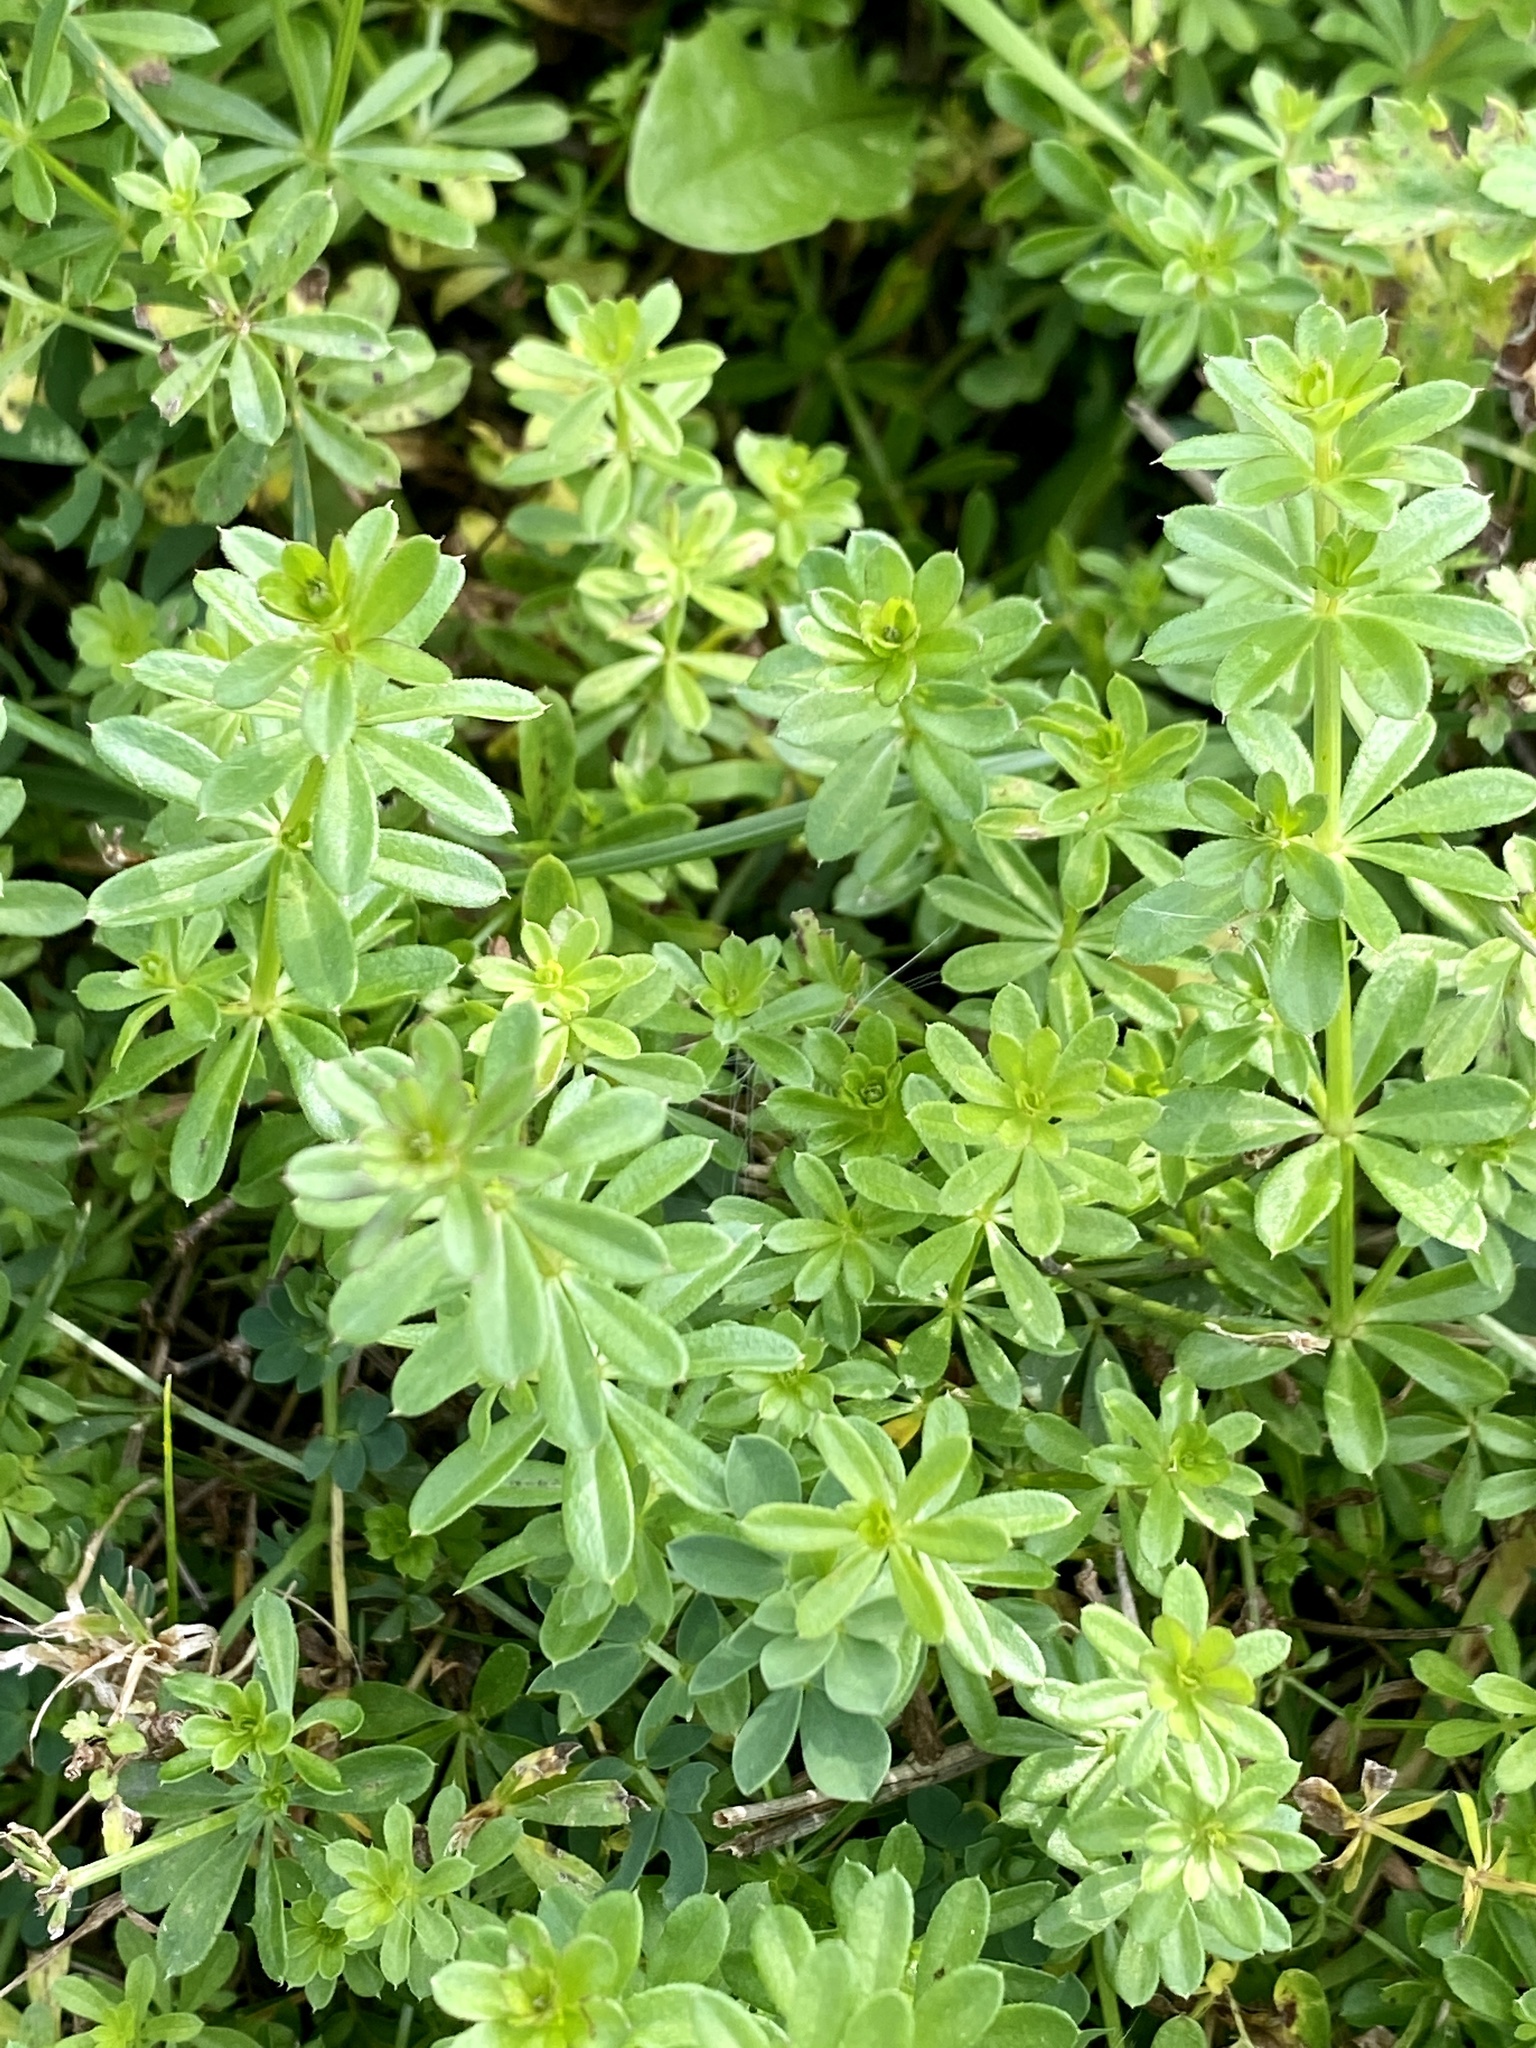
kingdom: Plantae
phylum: Tracheophyta
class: Magnoliopsida
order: Gentianales
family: Rubiaceae
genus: Galium
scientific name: Galium mollugo
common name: Hedge bedstraw
